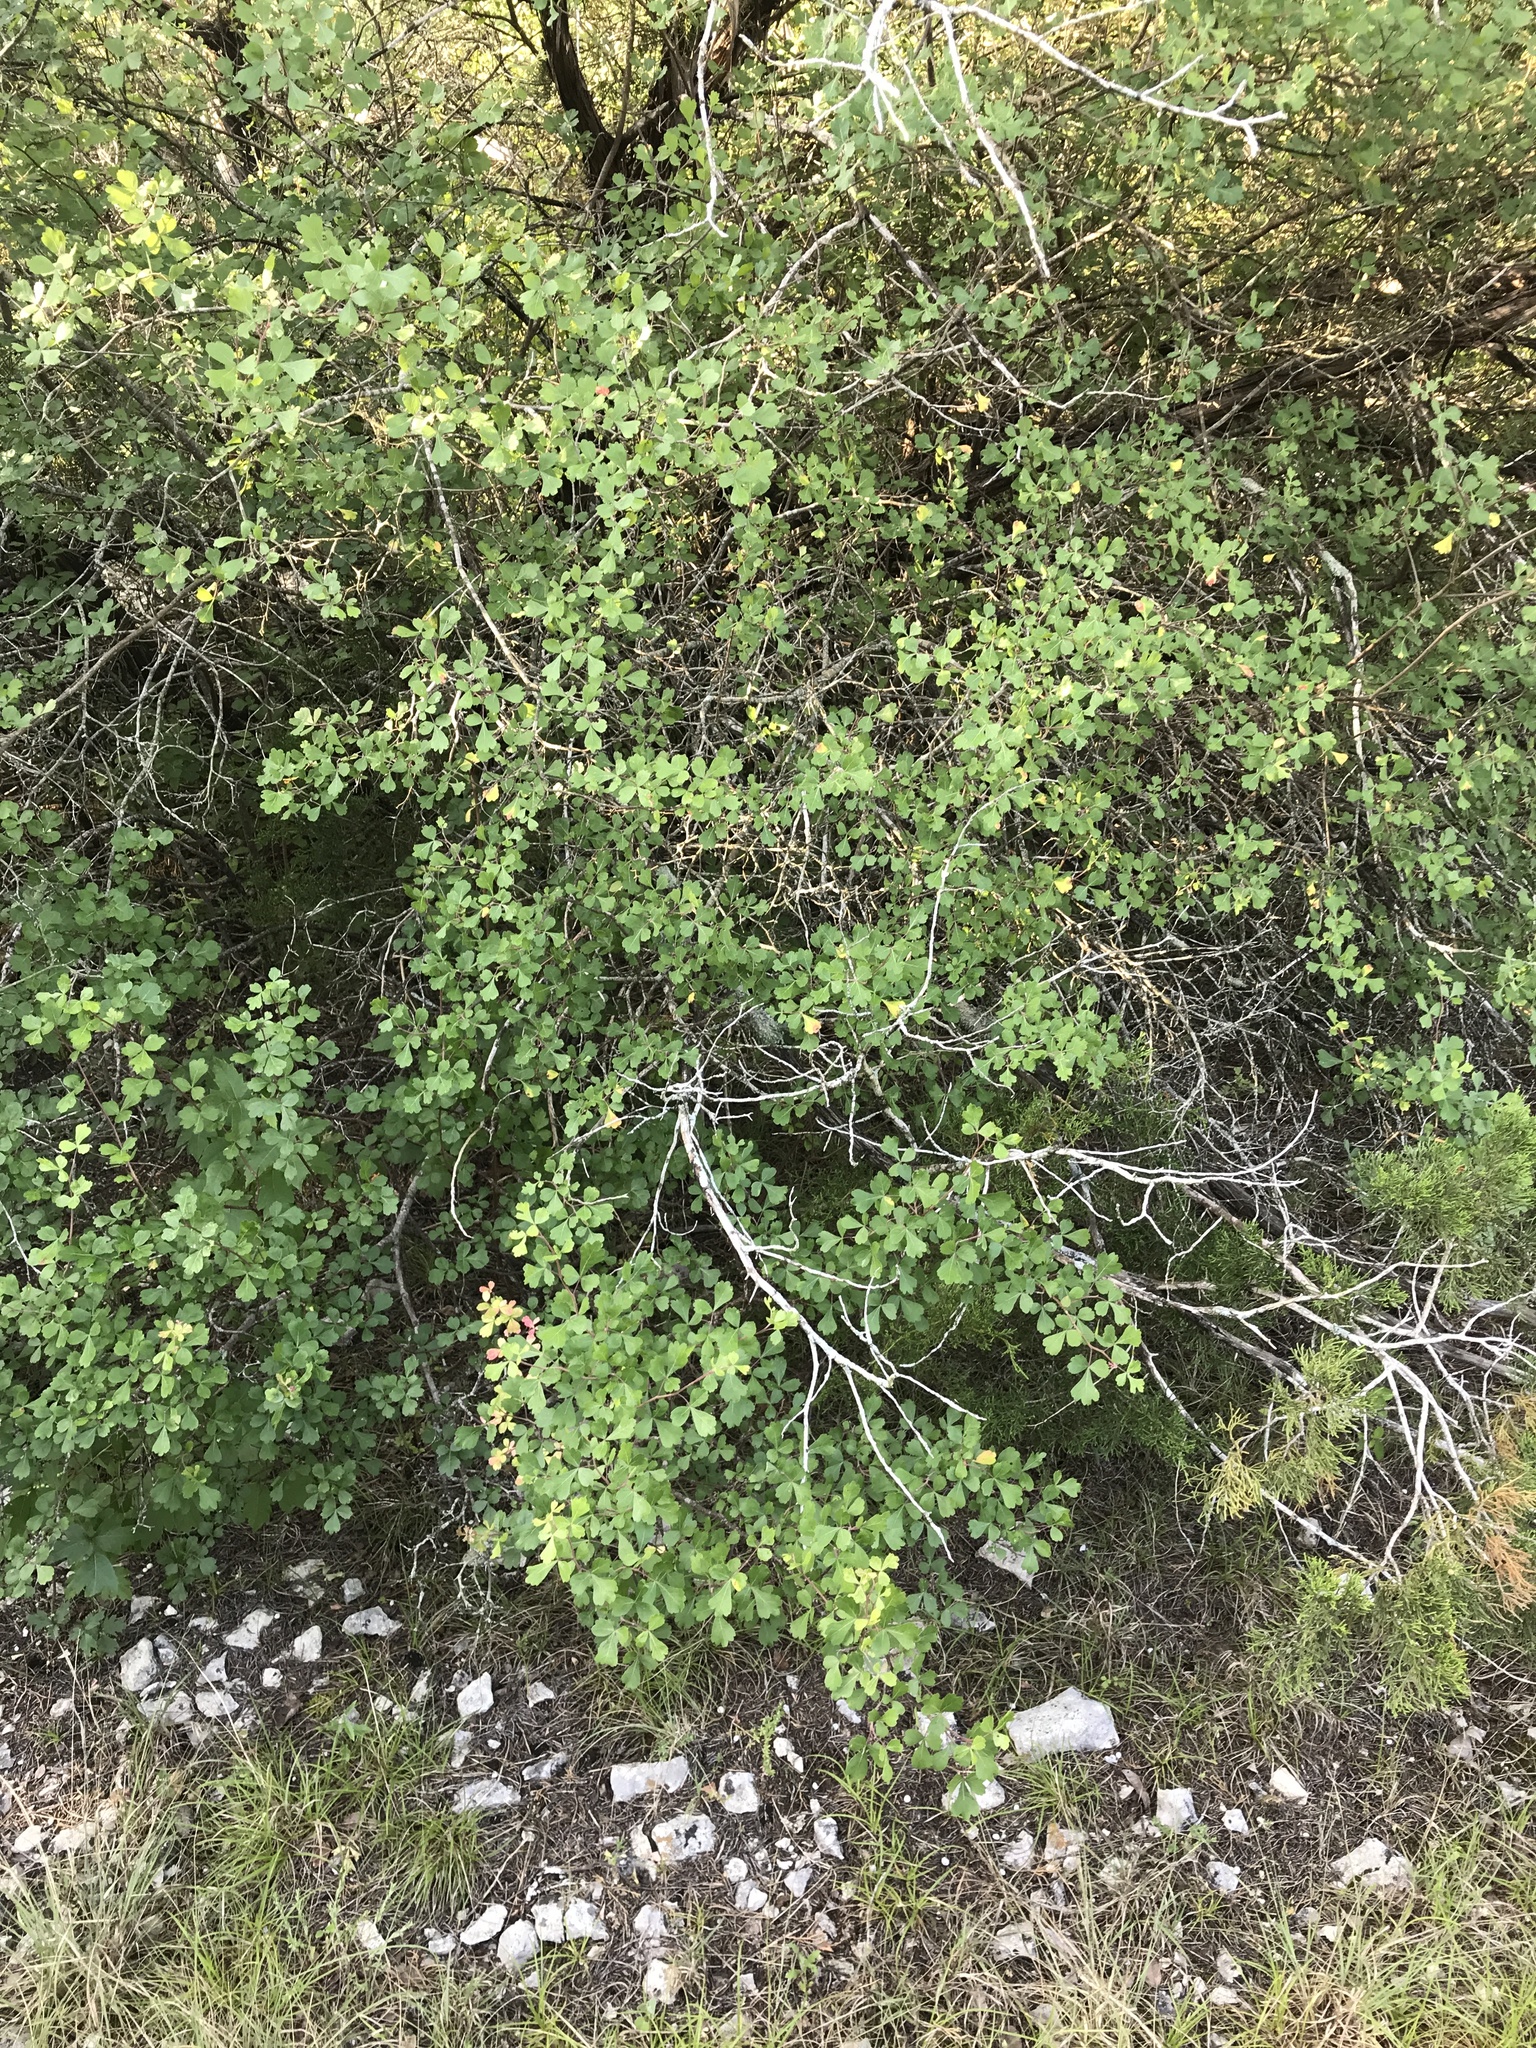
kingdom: Plantae
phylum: Tracheophyta
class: Magnoliopsida
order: Sapindales
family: Anacardiaceae
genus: Rhus
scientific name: Rhus aromatica
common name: Aromatic sumac
